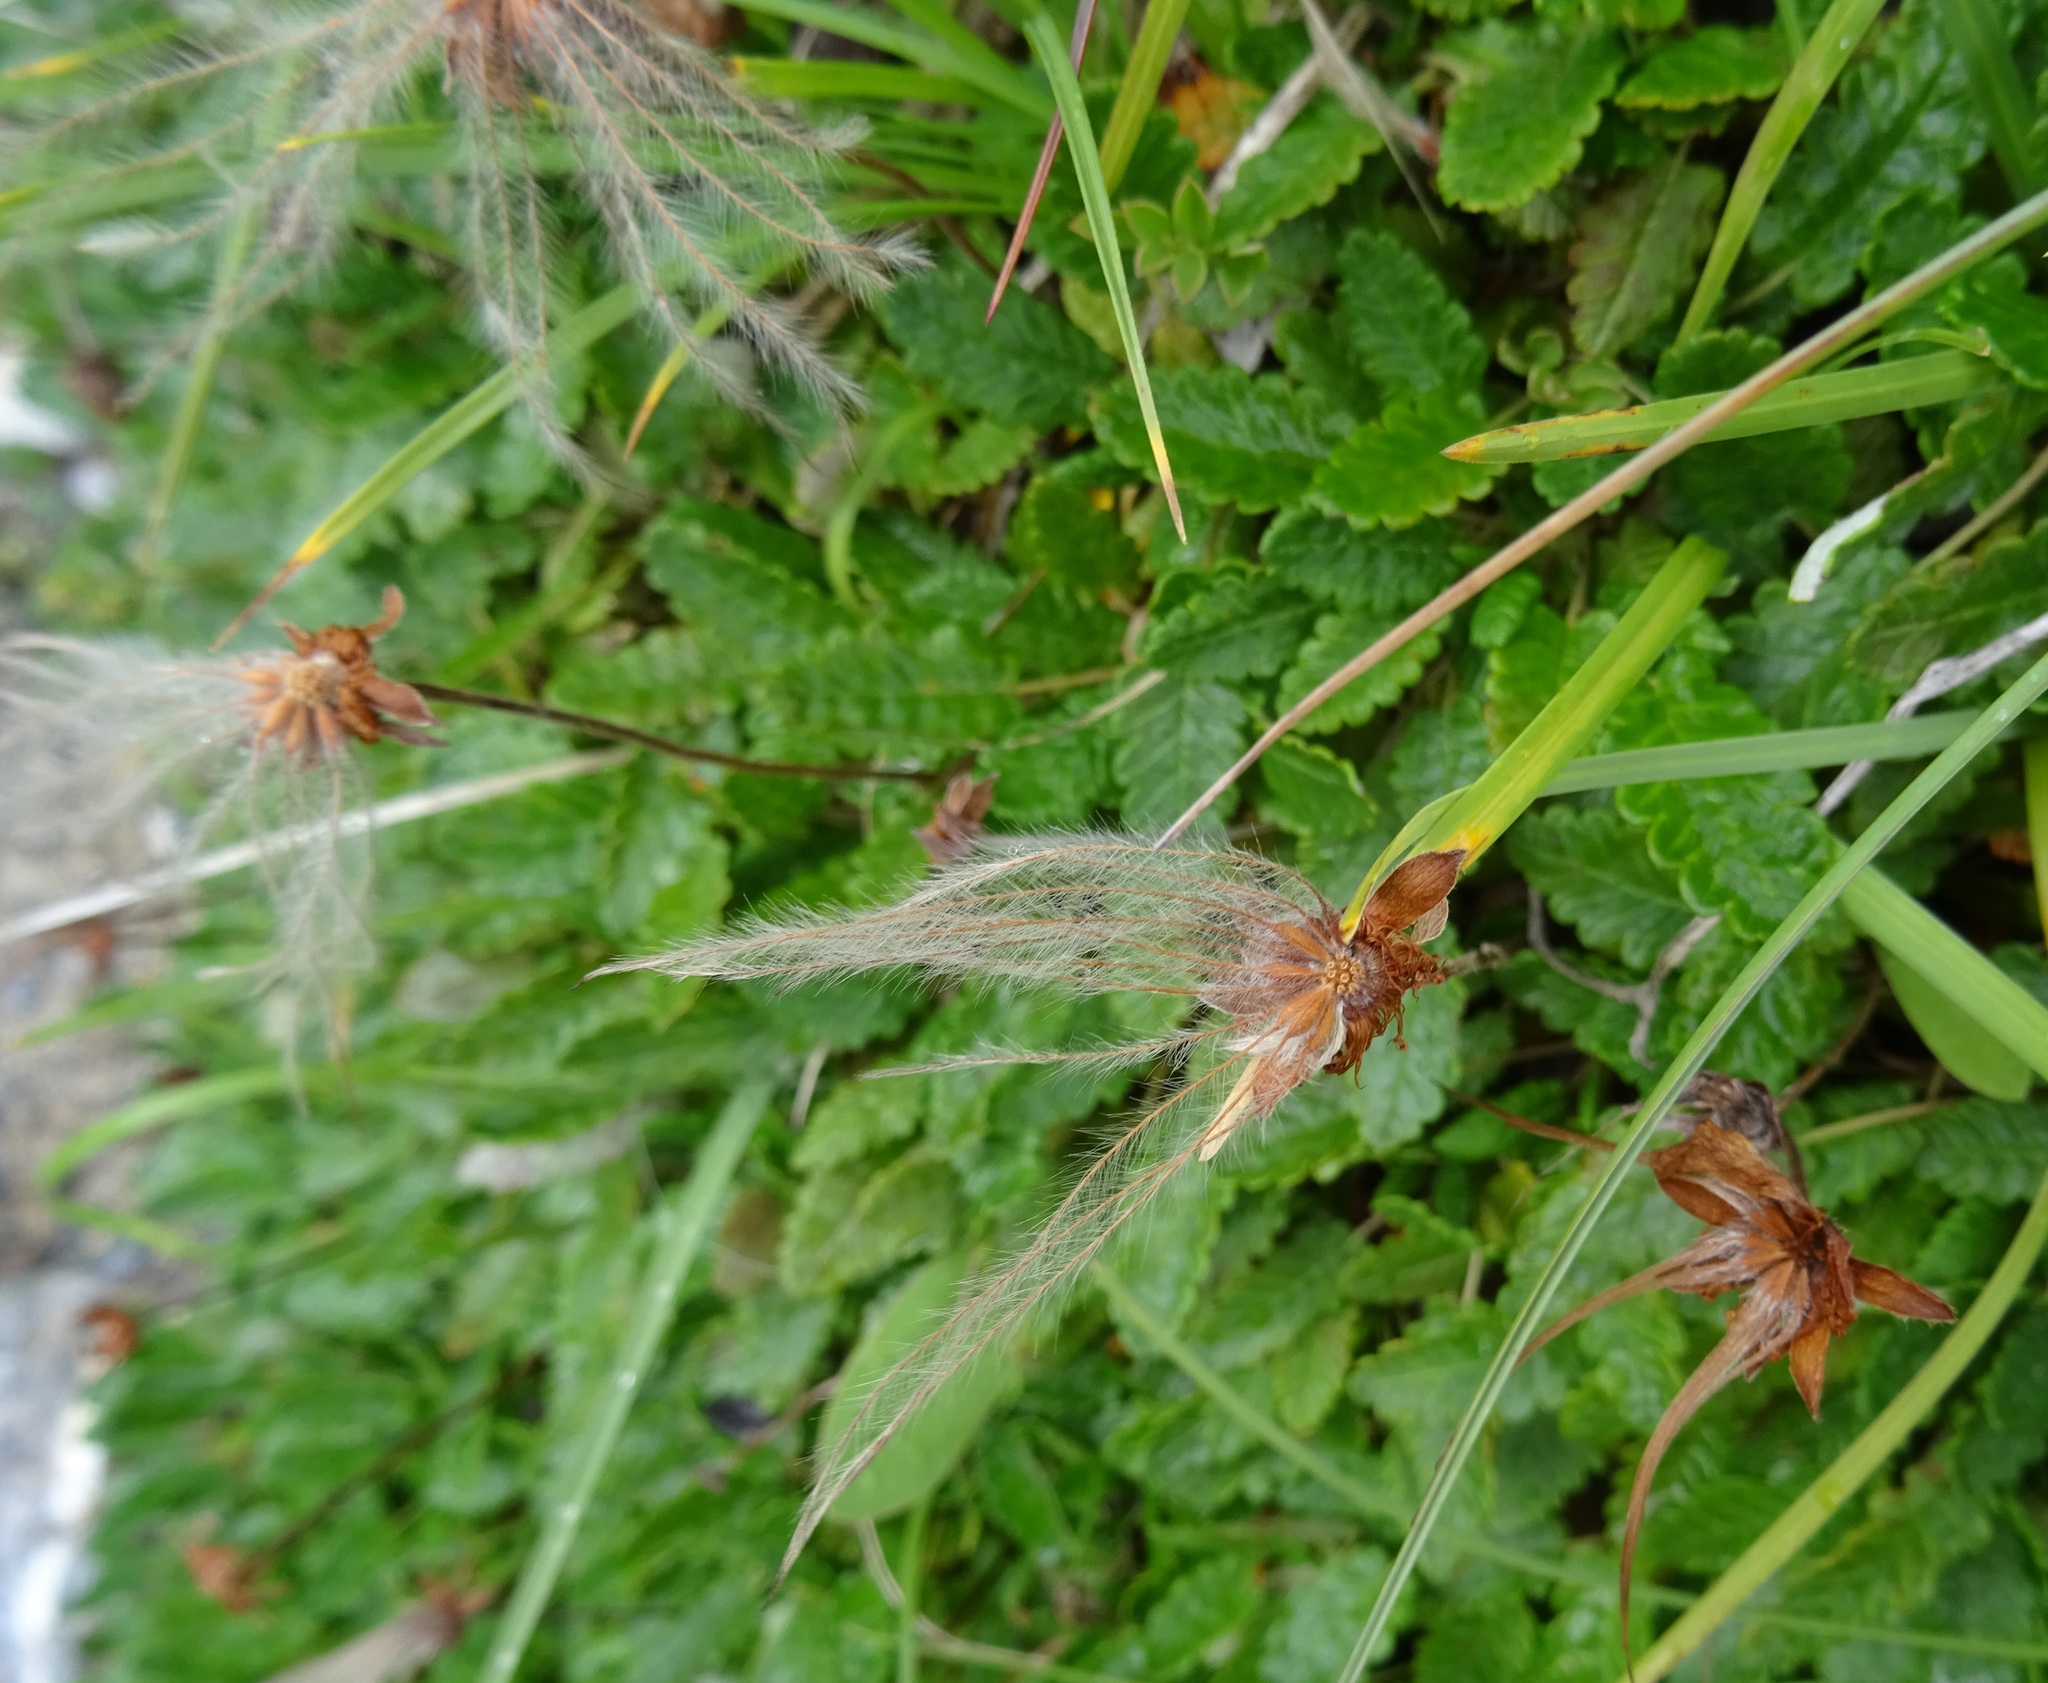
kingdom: Plantae
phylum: Tracheophyta
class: Magnoliopsida
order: Rosales
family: Rosaceae
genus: Dryas
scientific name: Dryas octopetala
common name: Eight-petal mountain-avens
